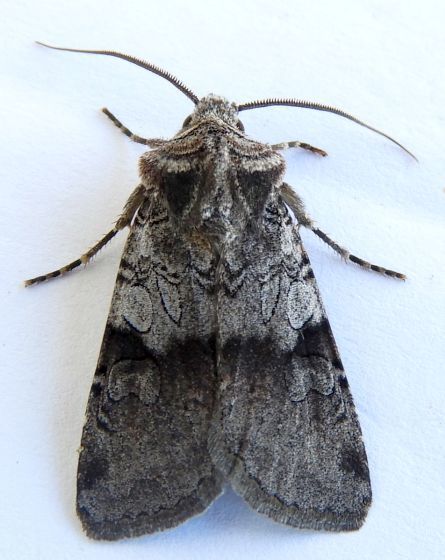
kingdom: Animalia
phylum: Arthropoda
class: Insecta
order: Lepidoptera
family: Noctuidae
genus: Euxoa
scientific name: Euxoa sculptilis
